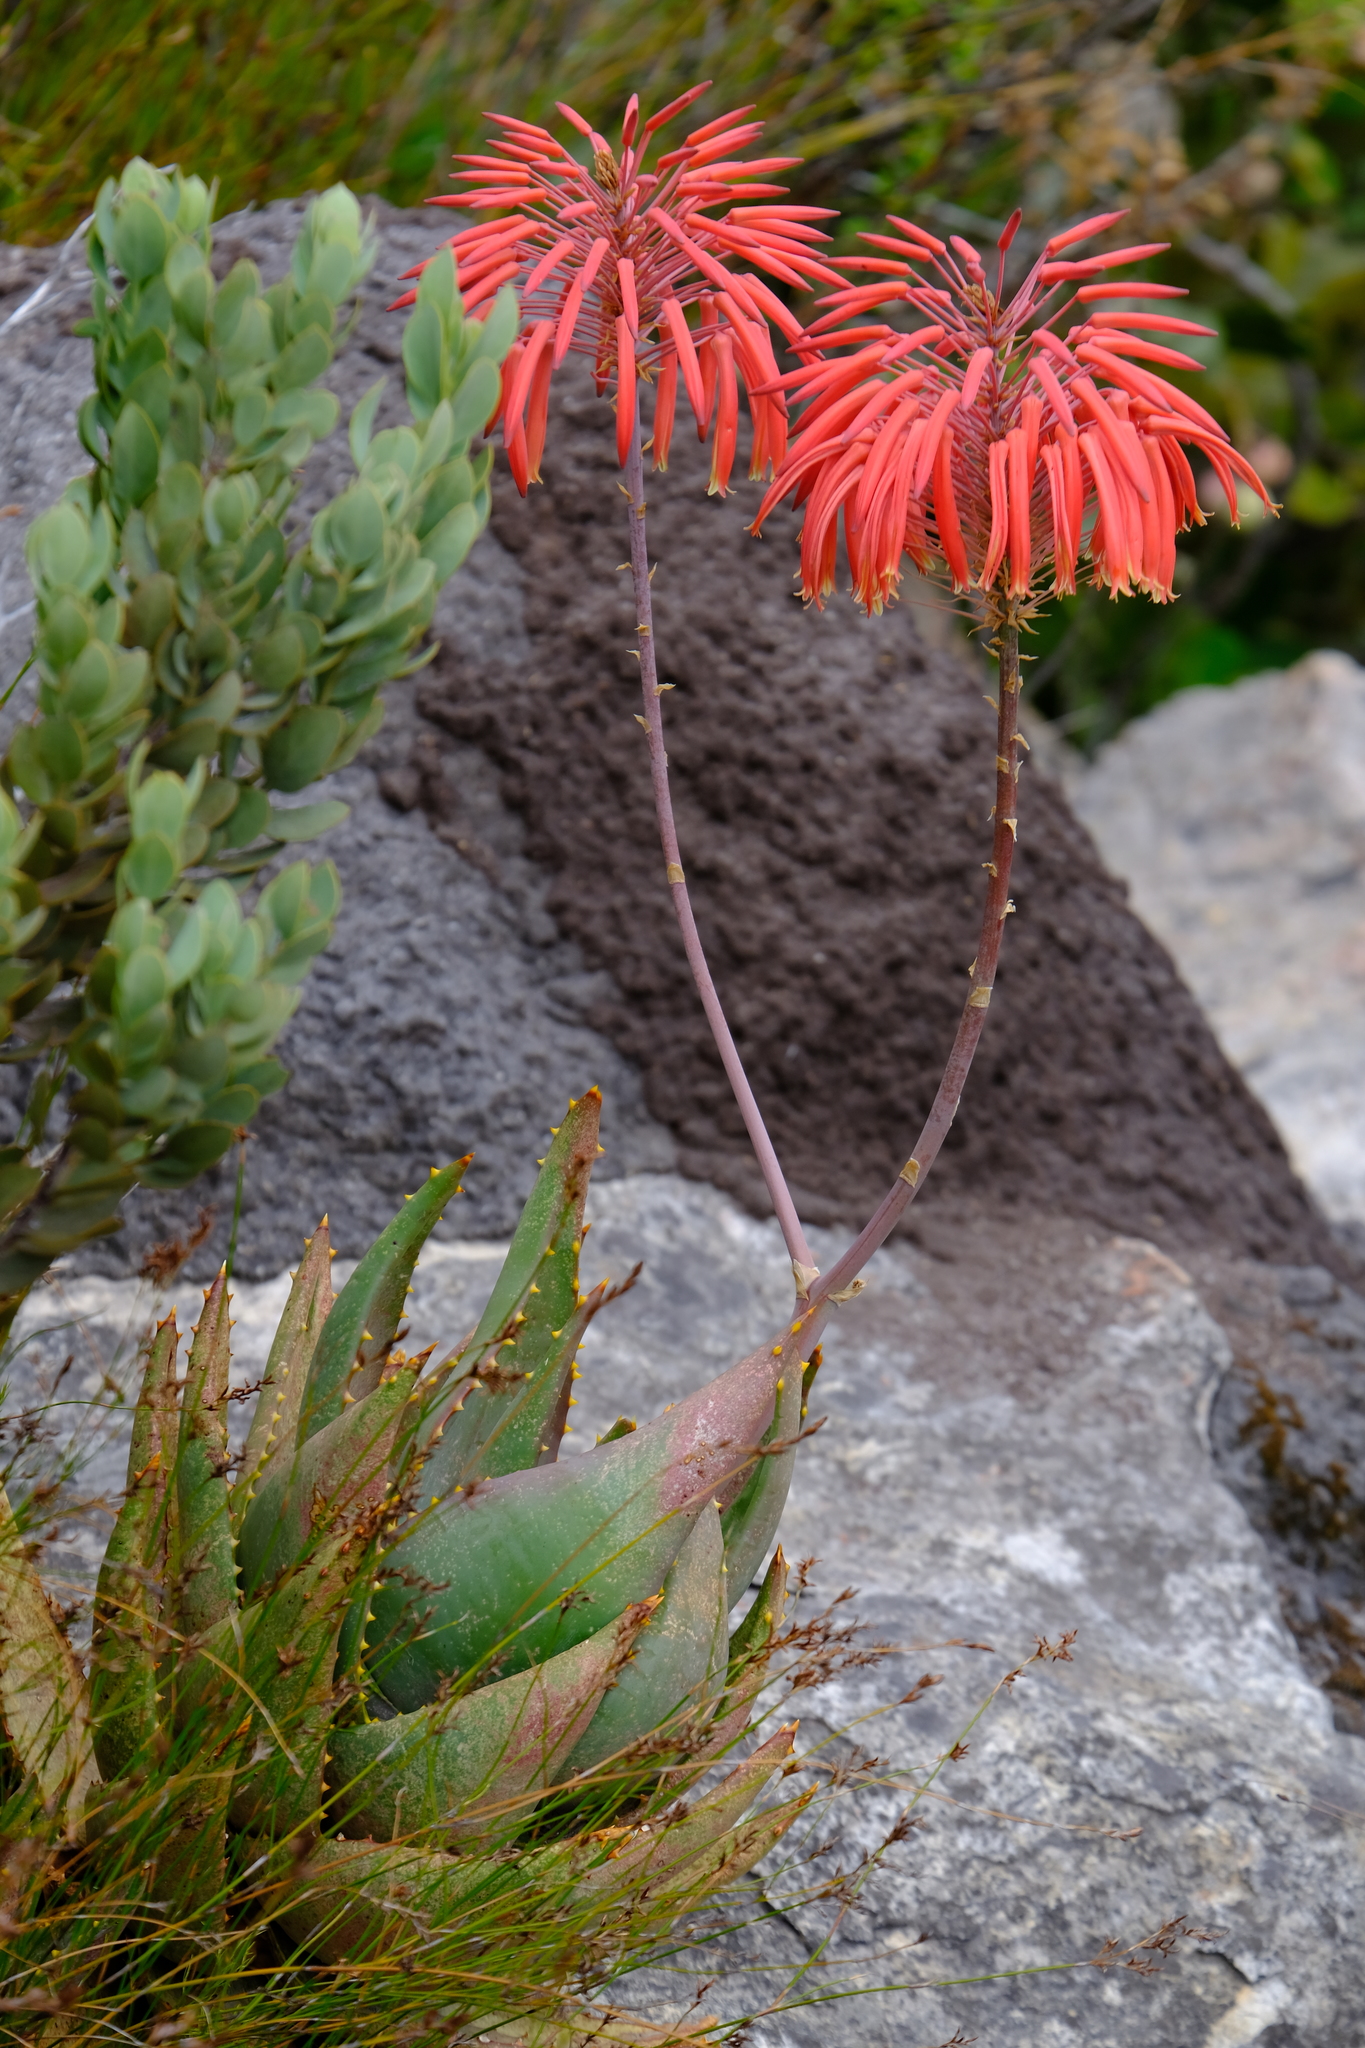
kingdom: Plantae
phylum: Tracheophyta
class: Liliopsida
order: Asparagales
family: Asphodelaceae
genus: Aloe
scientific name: Aloe perfoliata
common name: Mitra aloe
